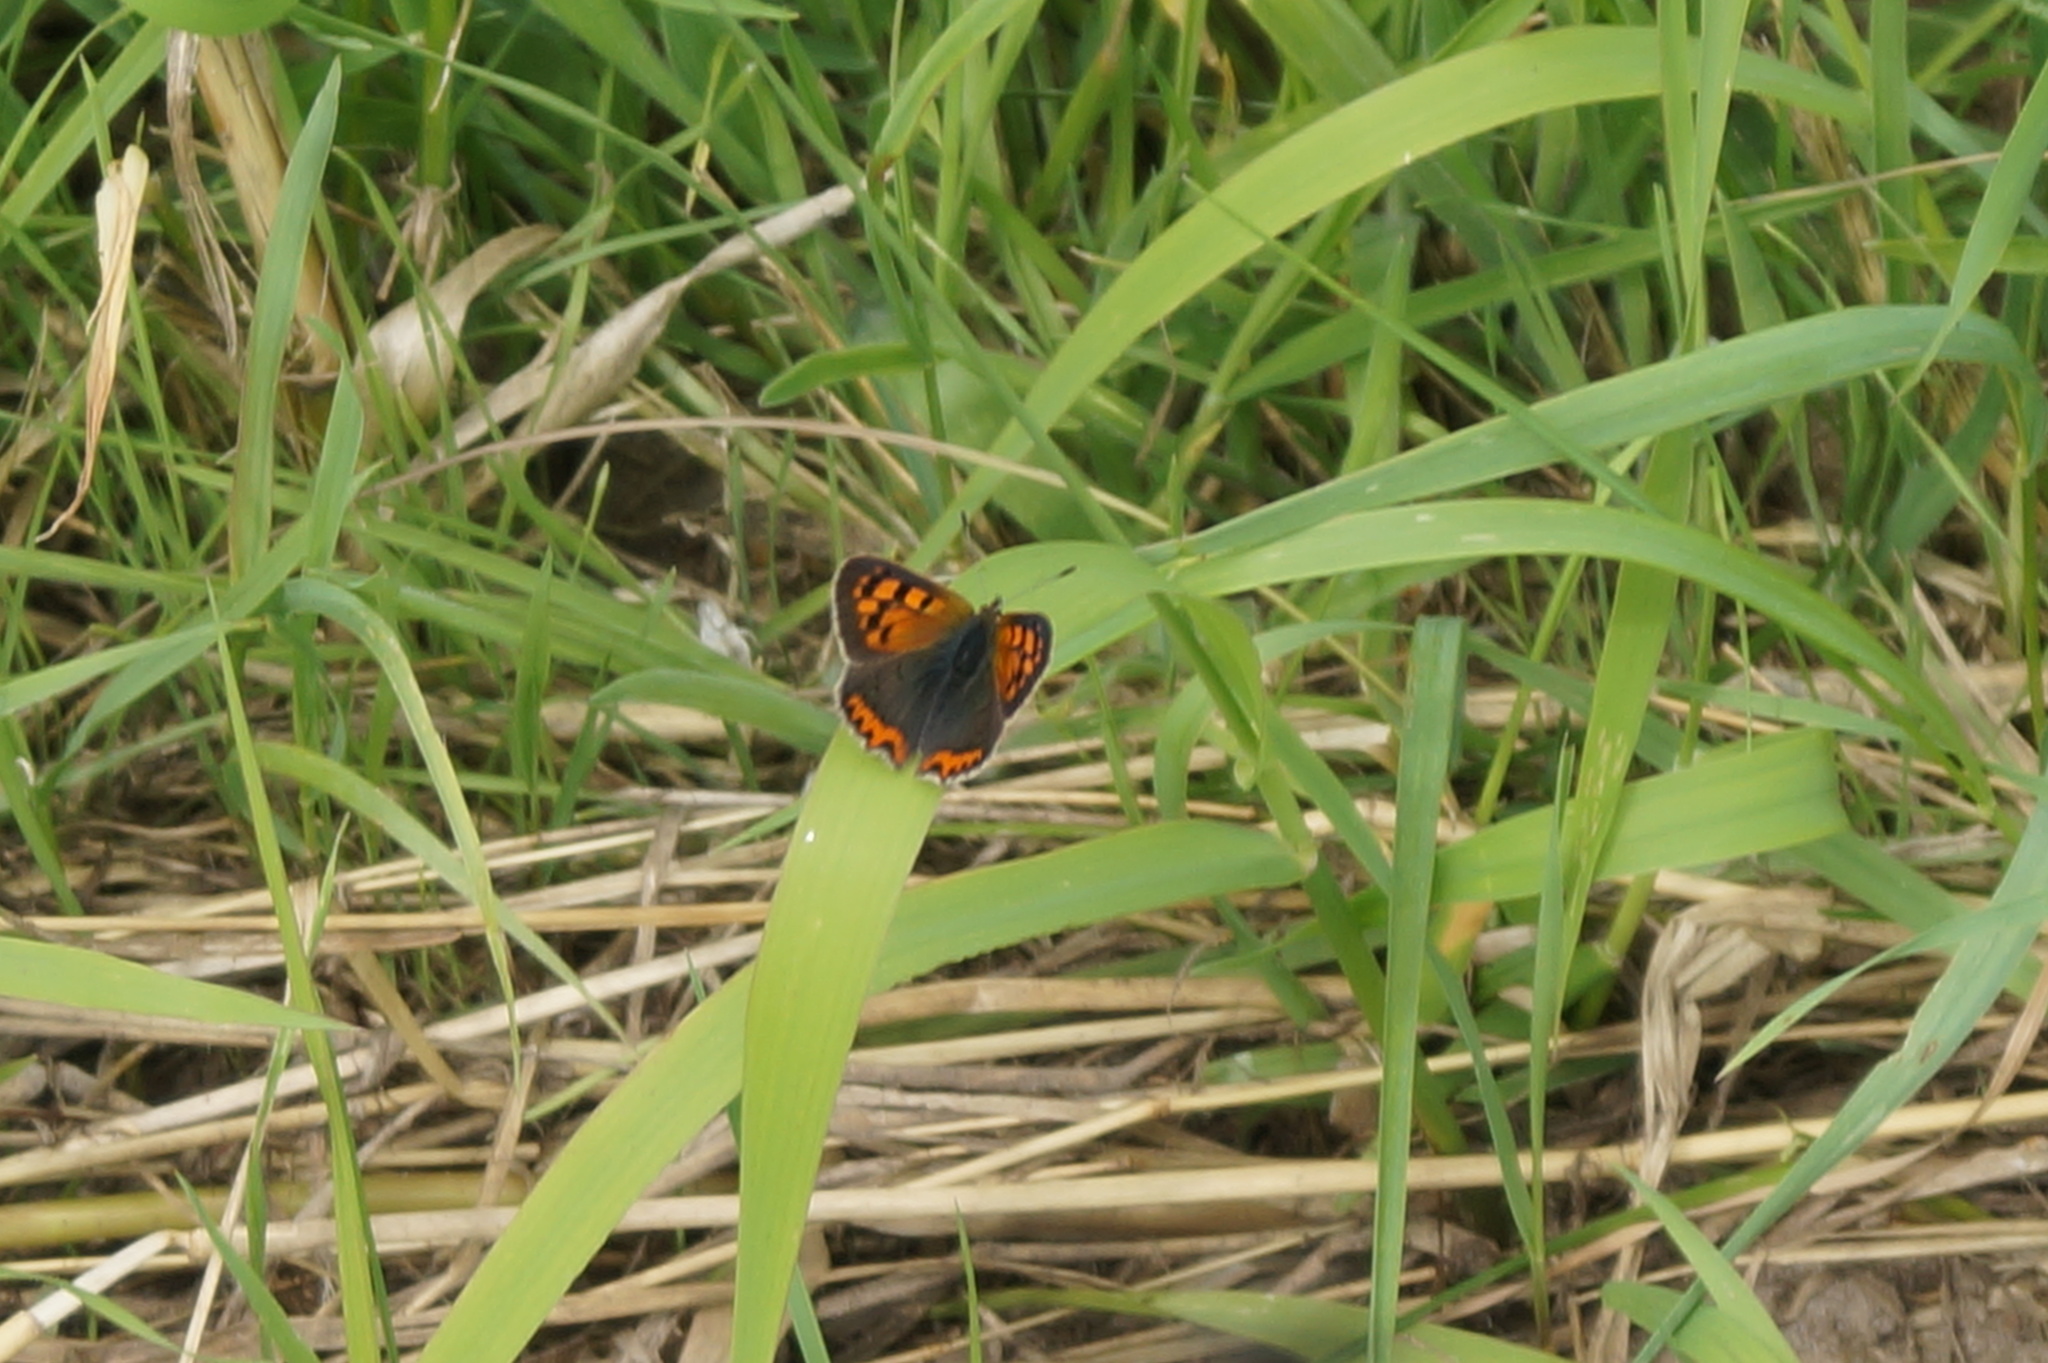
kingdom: Animalia
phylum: Arthropoda
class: Insecta
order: Lepidoptera
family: Lycaenidae
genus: Lycaena
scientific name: Lycaena phlaeas
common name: Small copper
